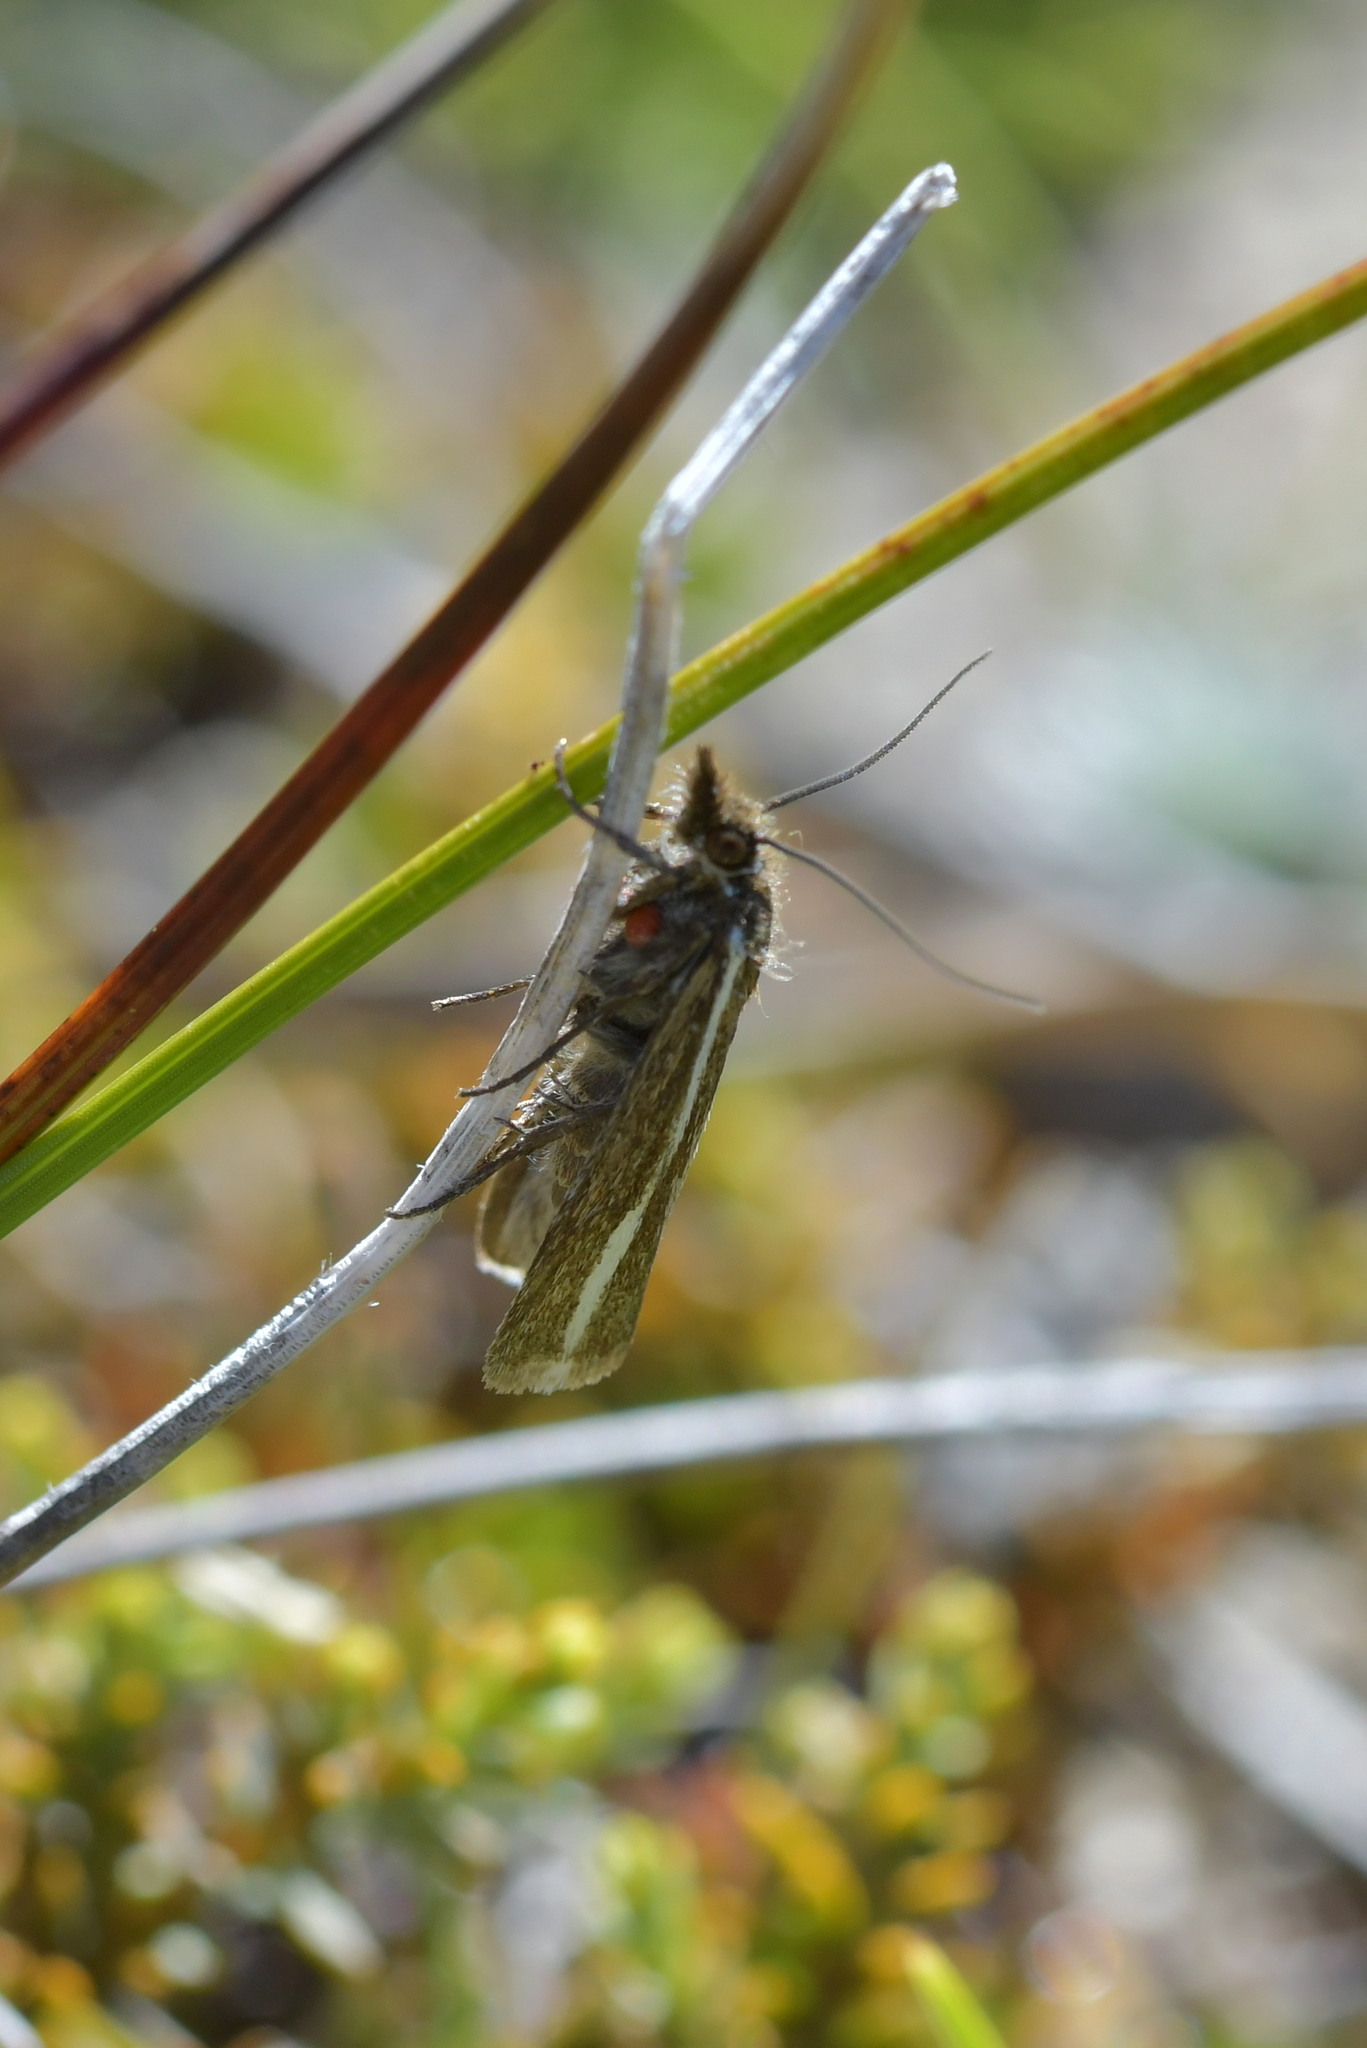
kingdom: Animalia
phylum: Arthropoda
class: Insecta
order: Lepidoptera
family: Crambidae
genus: Orocrambus
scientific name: Orocrambus catacaustus
